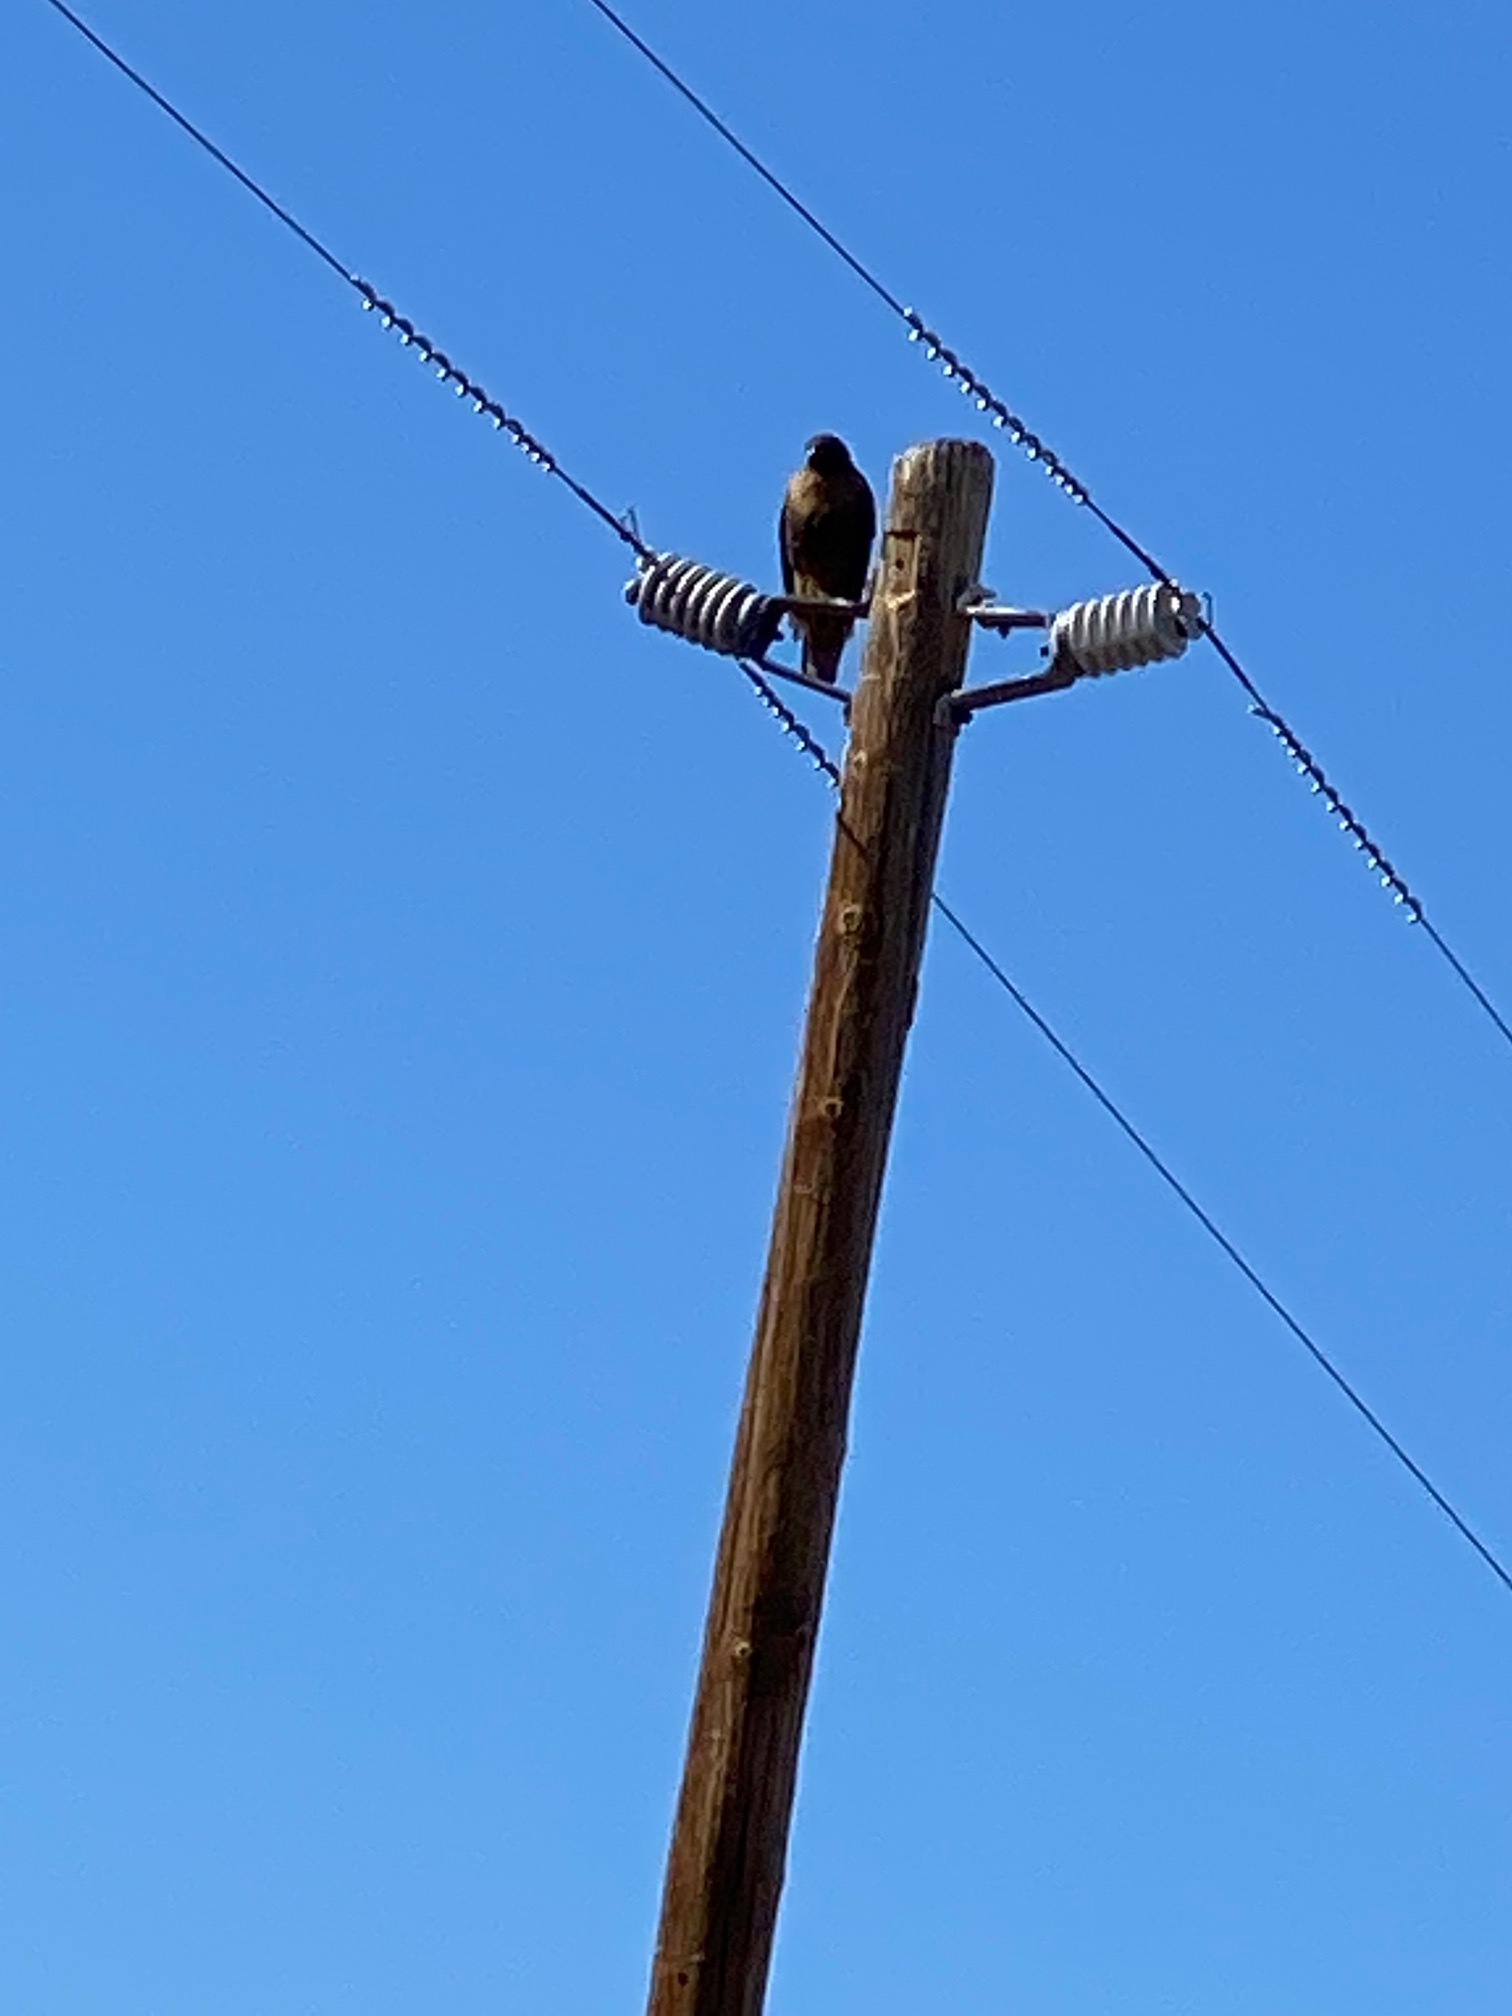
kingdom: Animalia
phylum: Chordata
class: Aves
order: Accipitriformes
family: Accipitridae
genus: Buteo
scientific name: Buteo jamaicensis
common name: Red-tailed hawk
